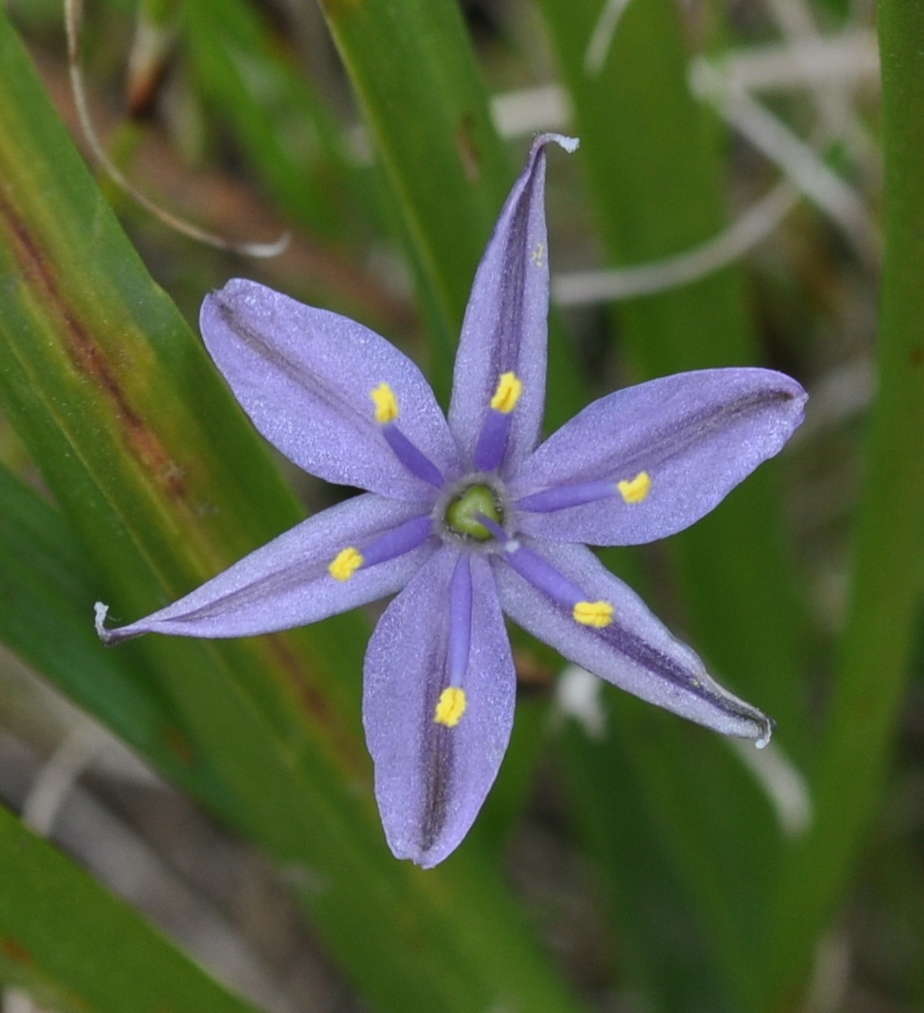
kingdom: Plantae
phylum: Tracheophyta
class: Liliopsida
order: Asparagales
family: Asphodelaceae
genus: Caesia
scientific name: Caesia calliantha
